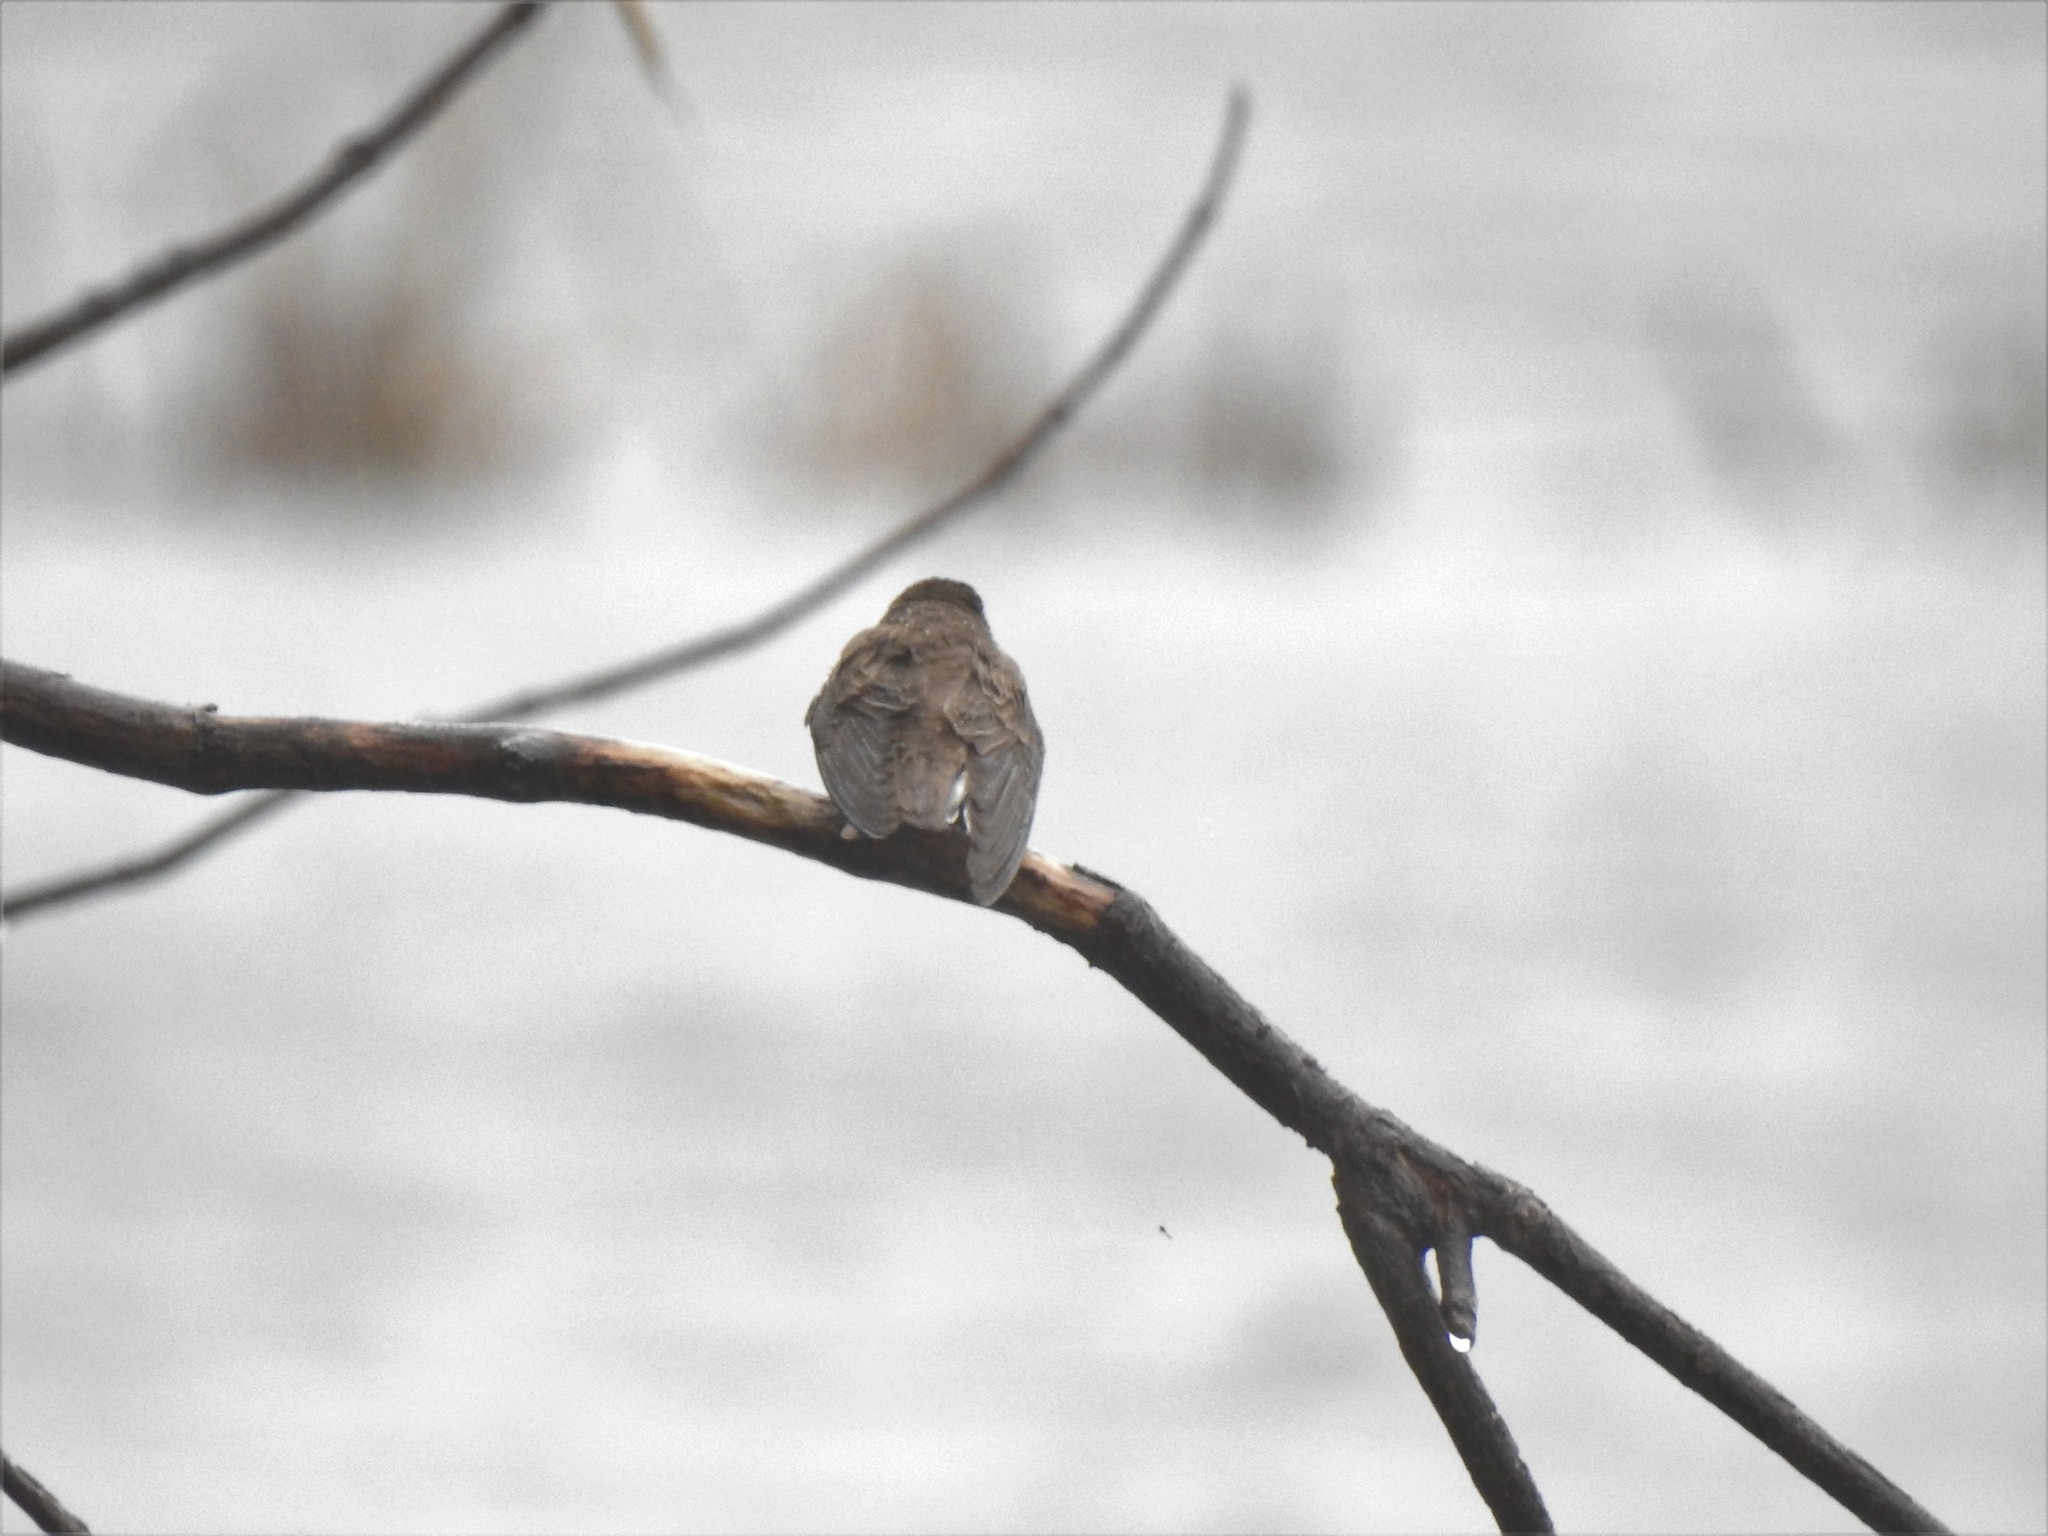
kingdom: Animalia
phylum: Chordata
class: Aves
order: Passeriformes
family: Hirundinidae
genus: Tachycineta
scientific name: Tachycineta bicolor
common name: Tree swallow
